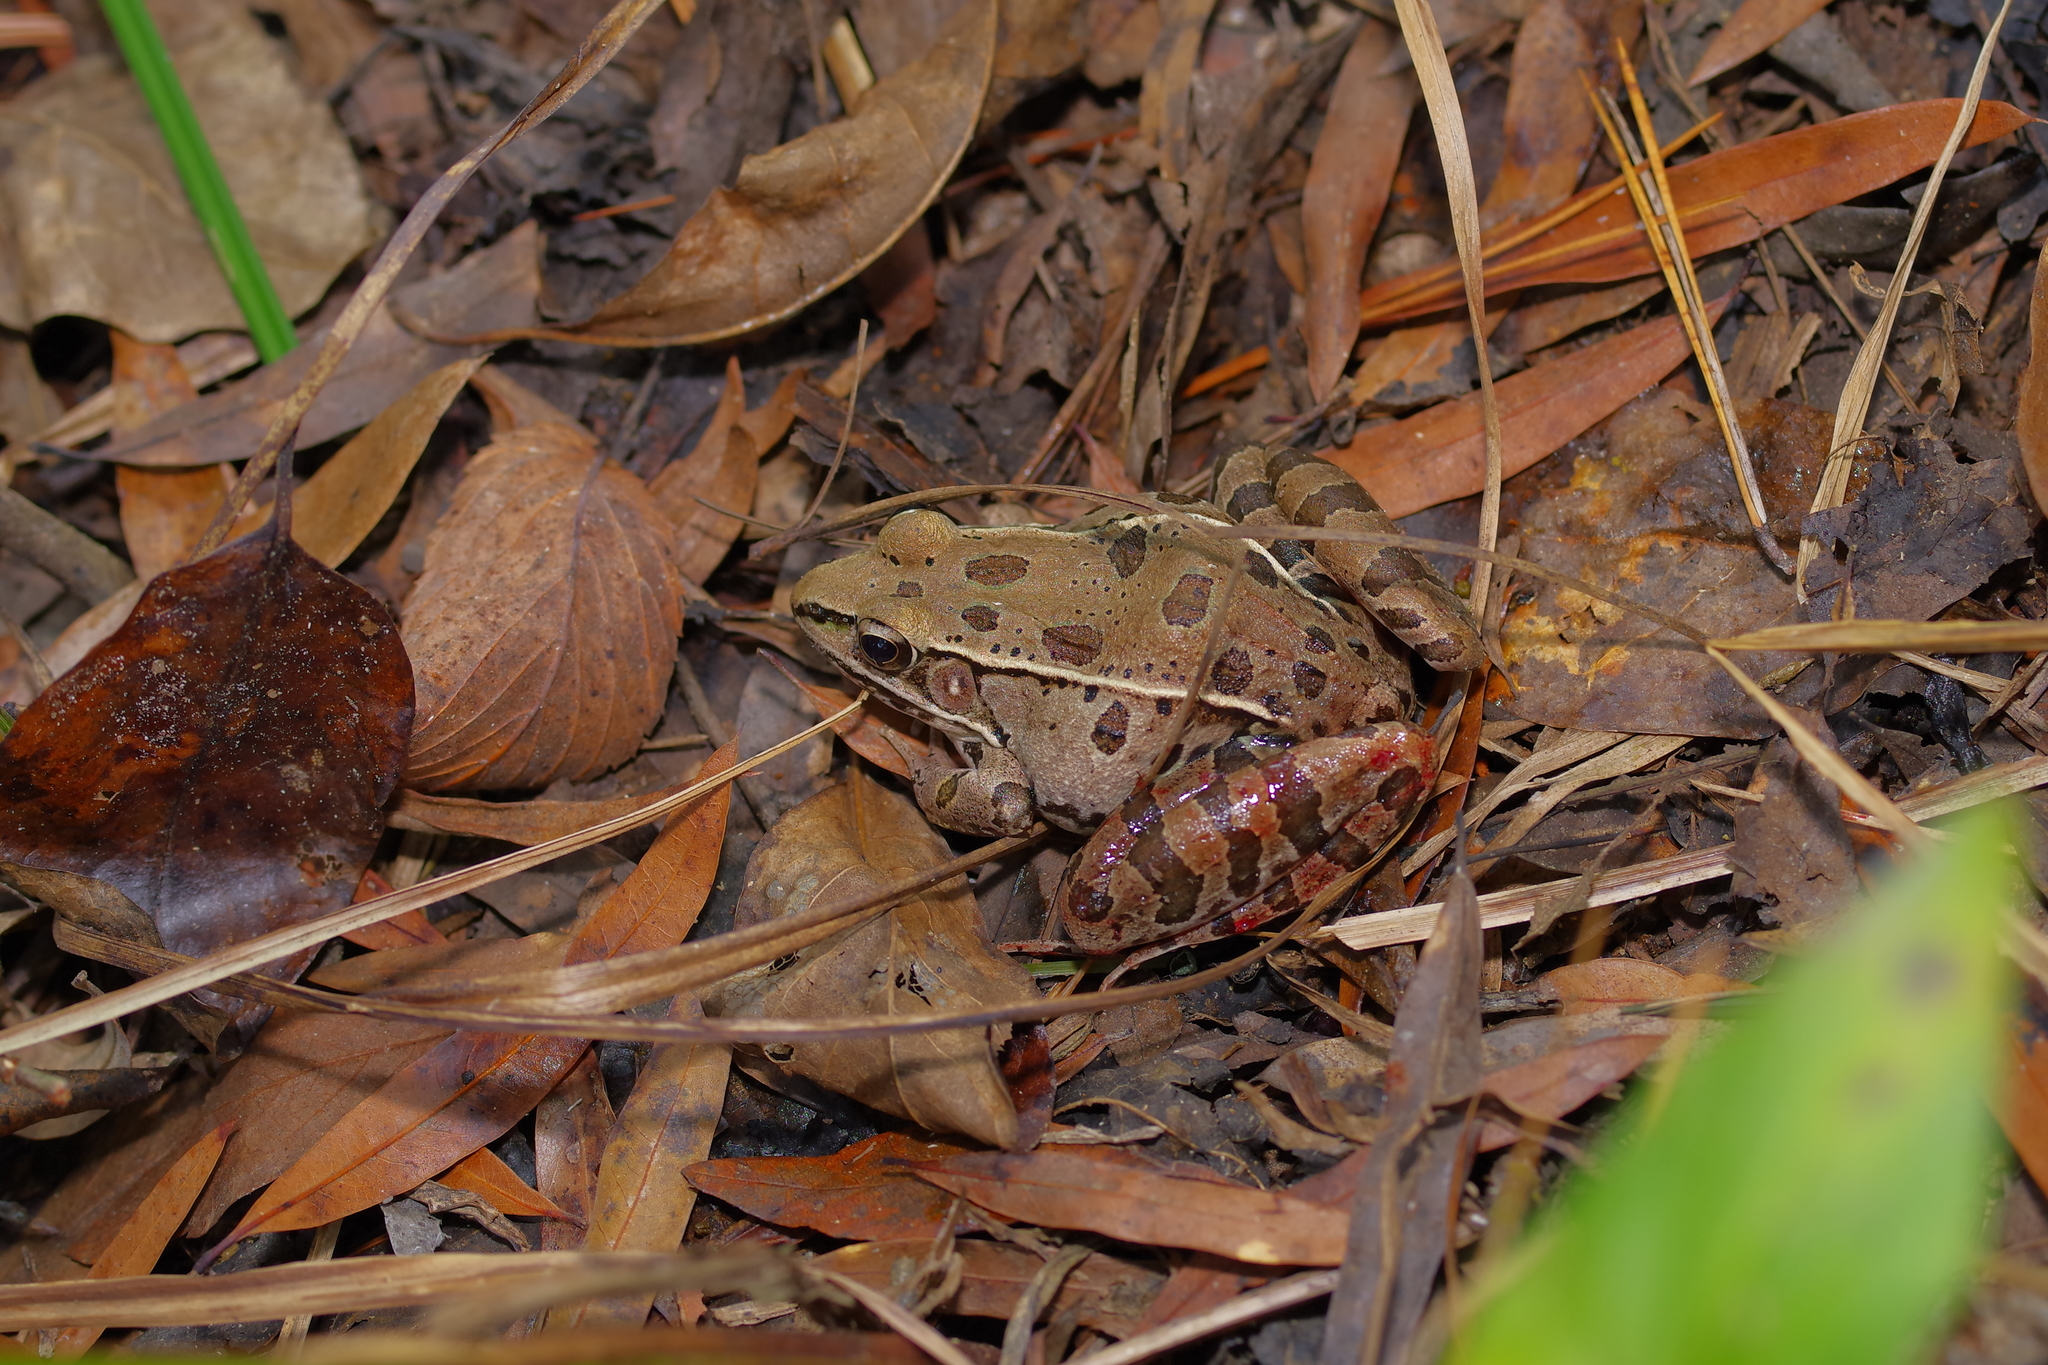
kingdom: Animalia
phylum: Chordata
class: Amphibia
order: Anura
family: Ranidae
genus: Lithobates
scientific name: Lithobates sphenocephalus
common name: Southern leopard frog
